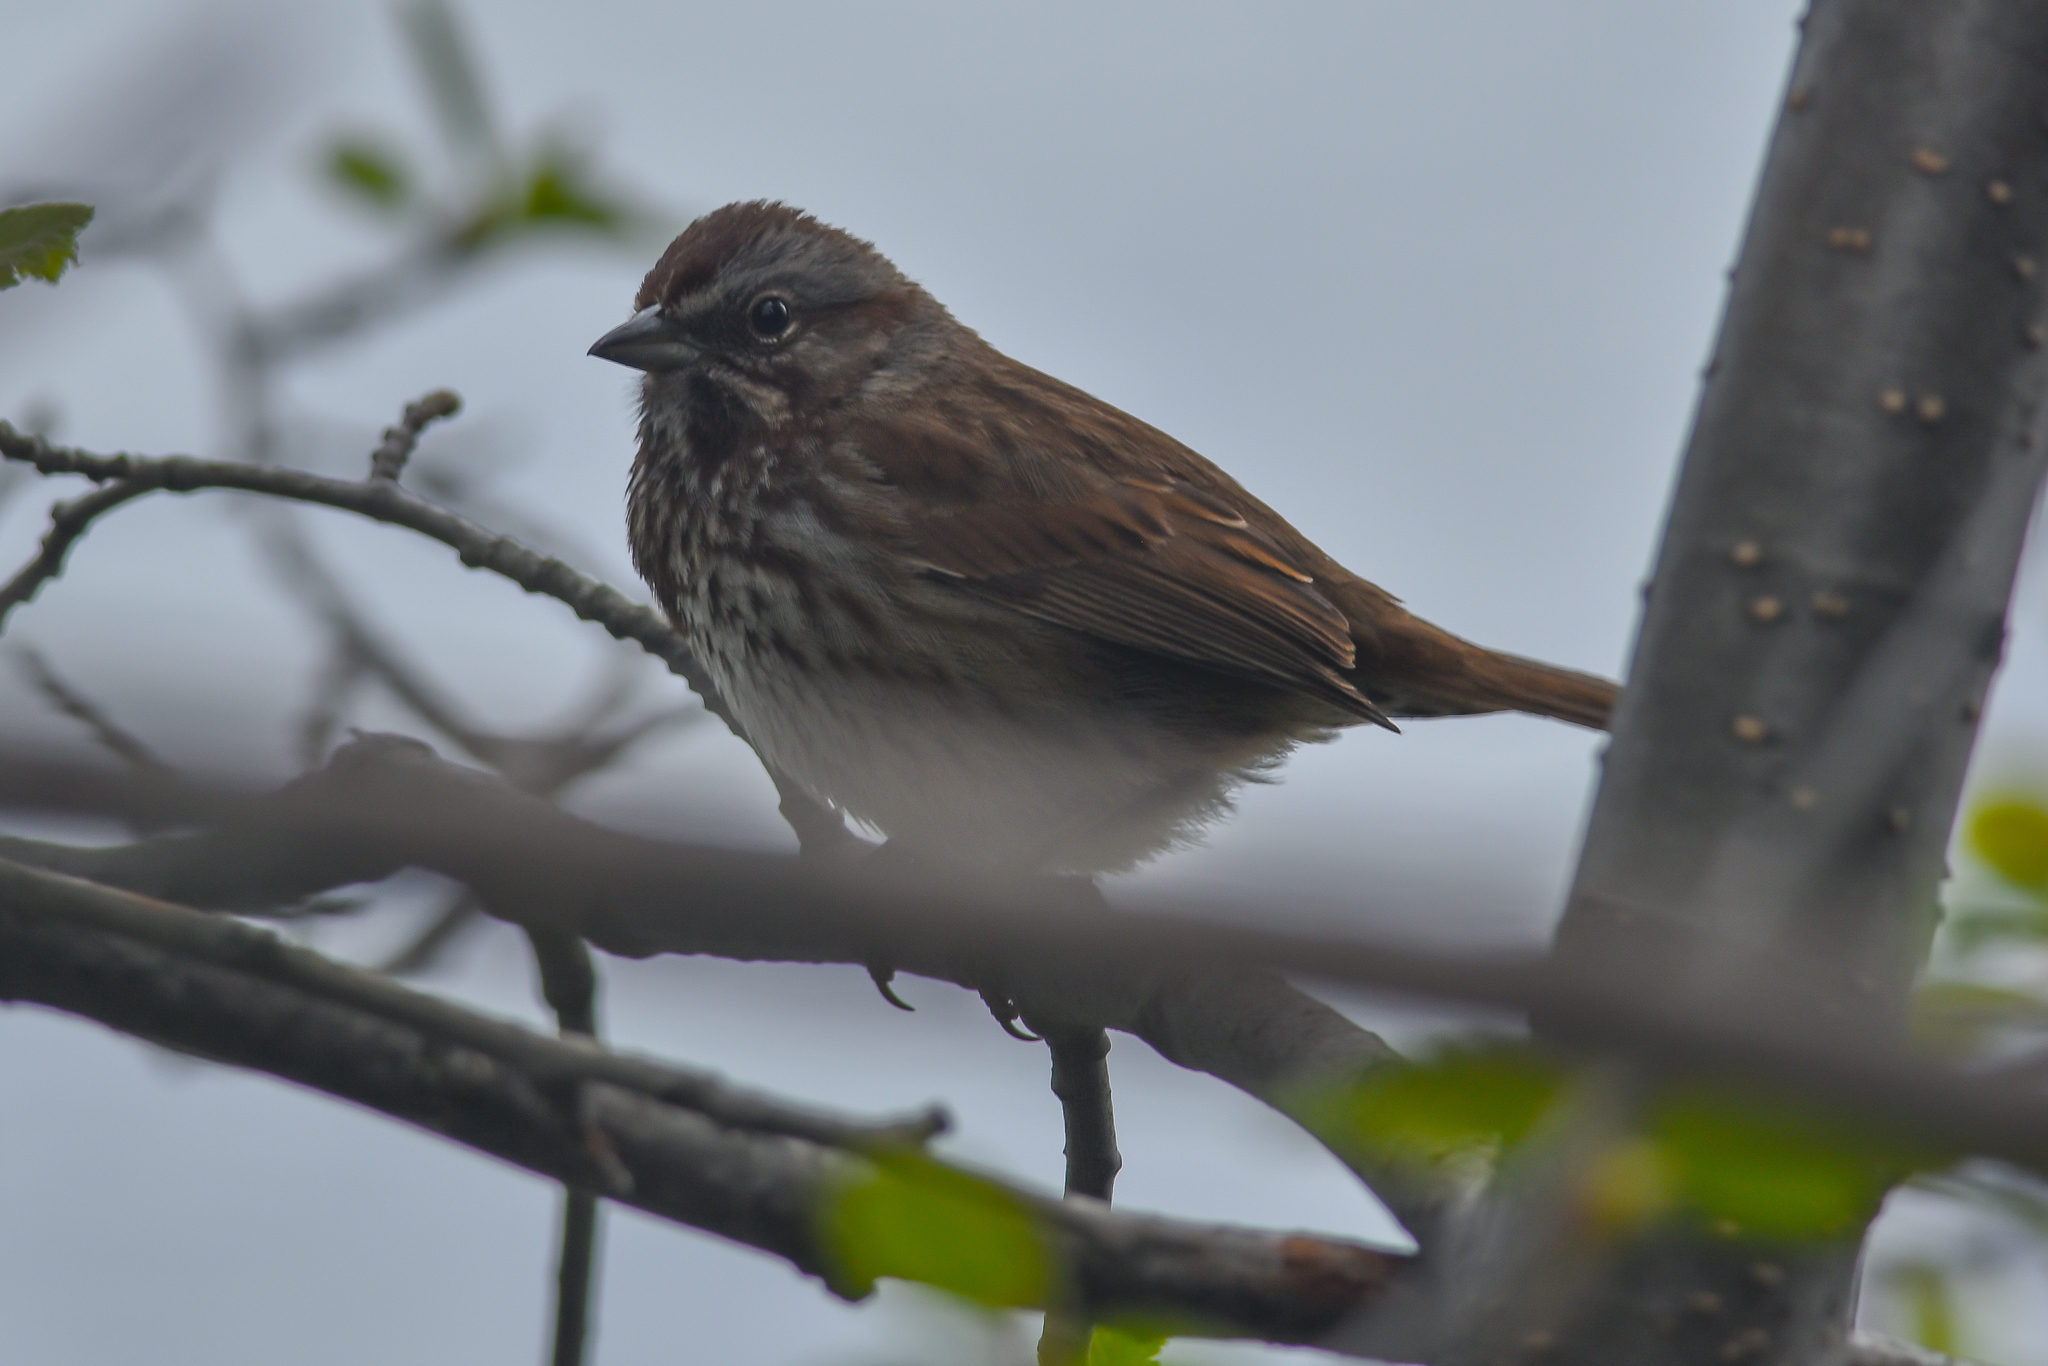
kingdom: Animalia
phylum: Chordata
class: Aves
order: Passeriformes
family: Passerellidae
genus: Melospiza
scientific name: Melospiza melodia
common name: Song sparrow
